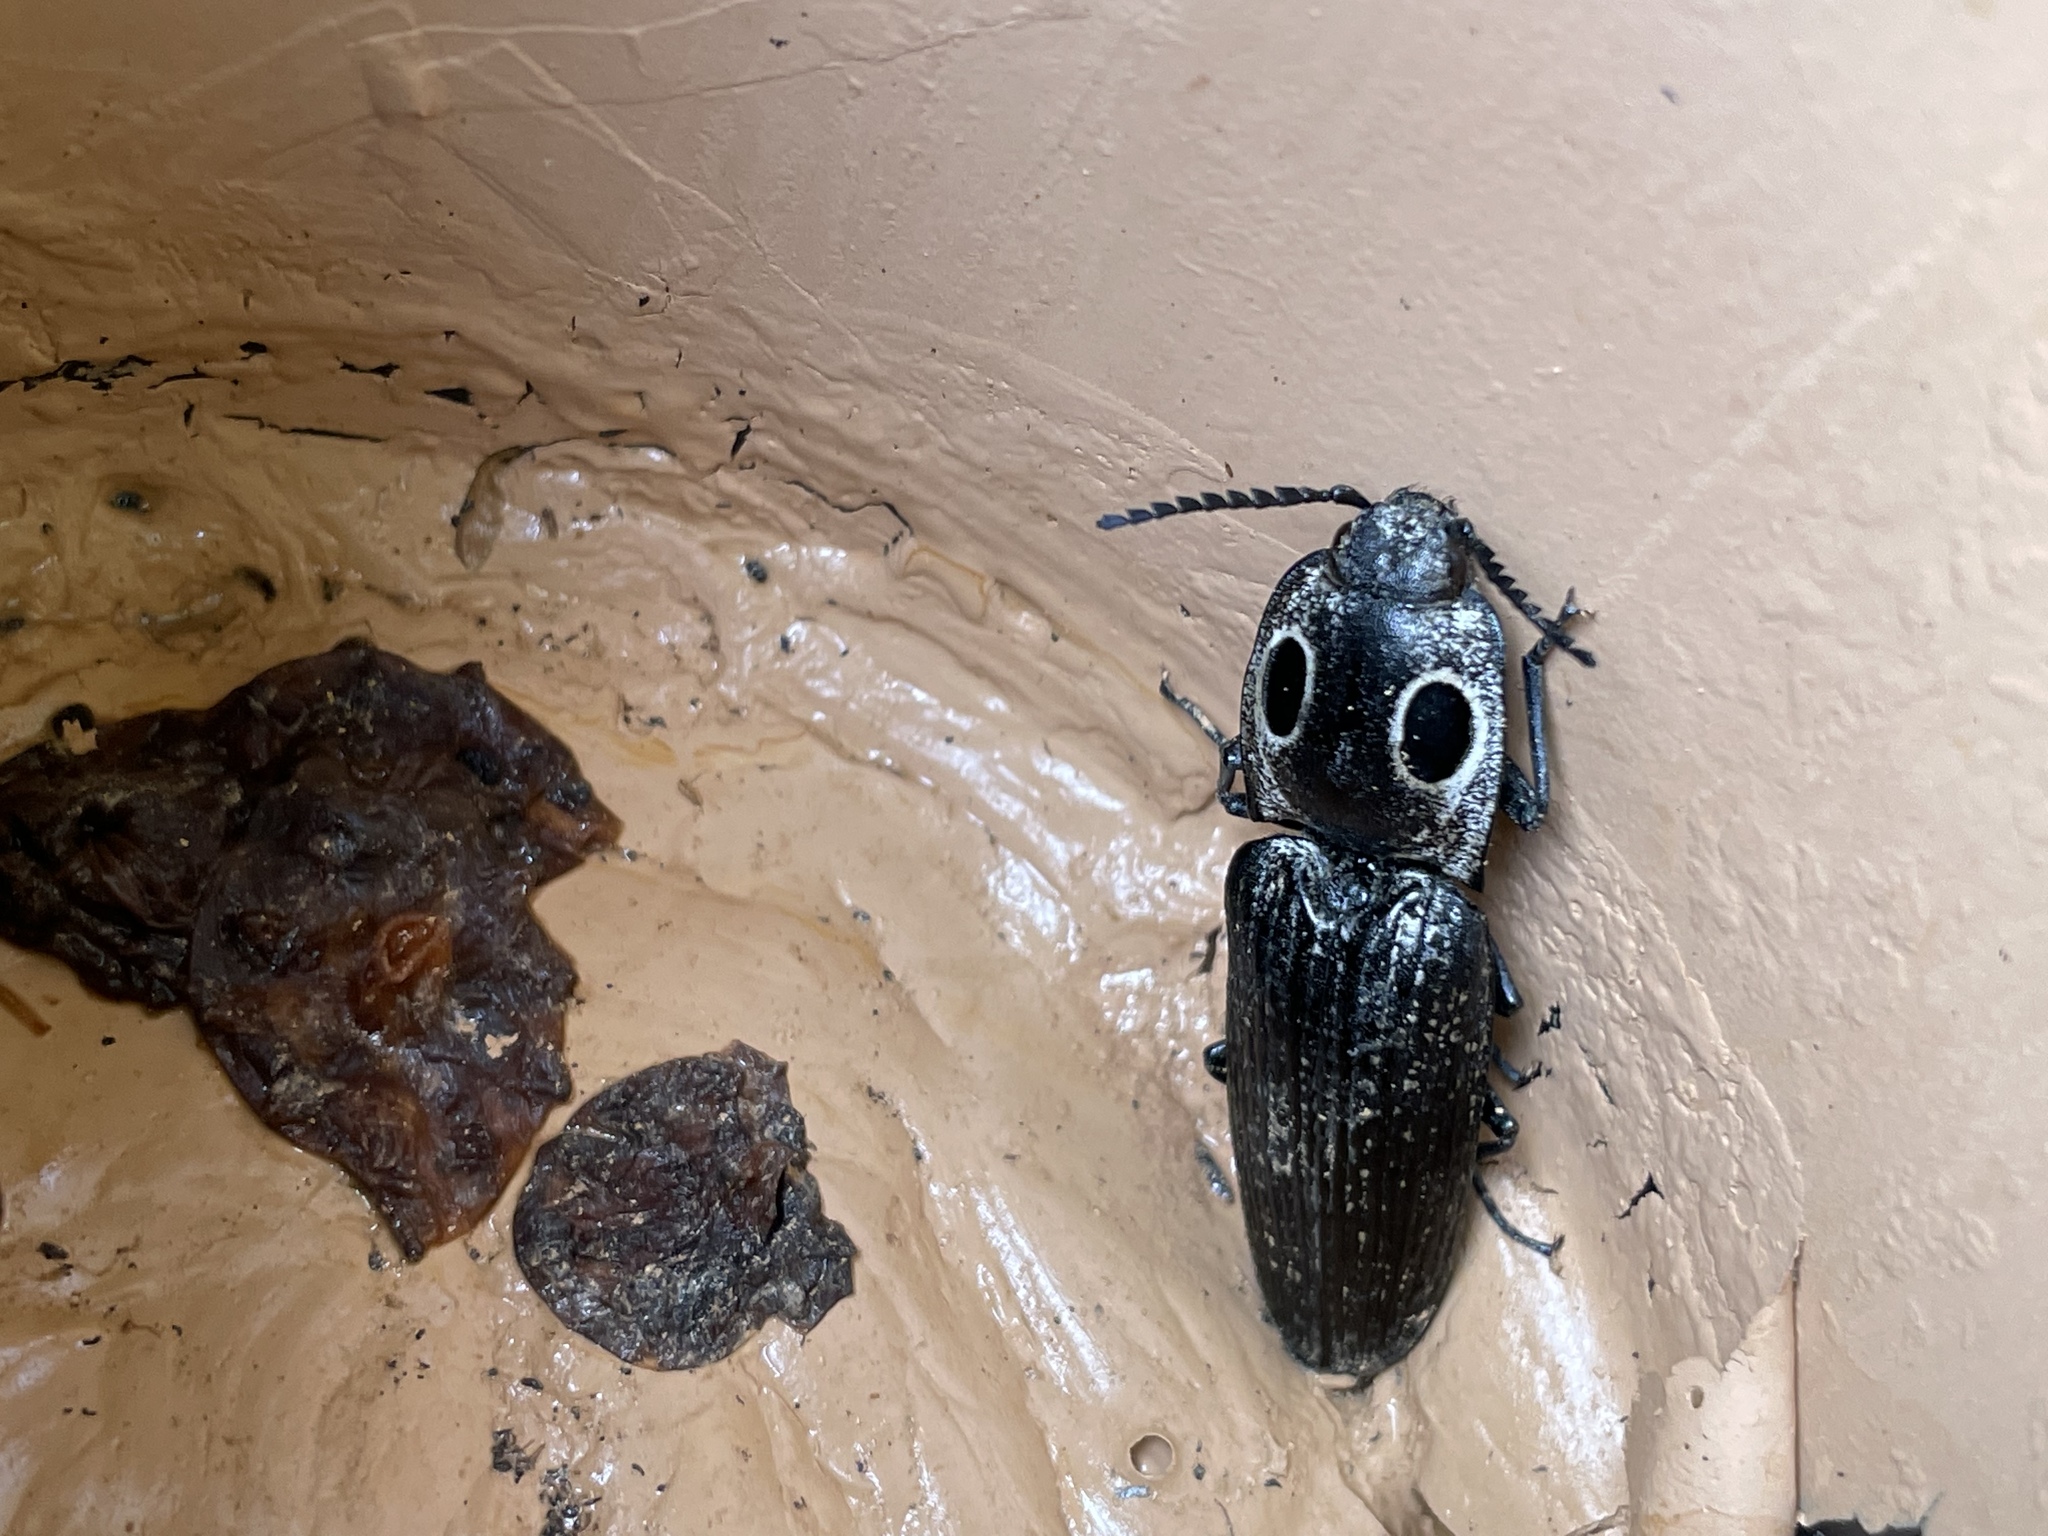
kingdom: Animalia
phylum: Arthropoda
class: Insecta
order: Coleoptera
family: Elateridae
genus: Alaus
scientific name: Alaus oculatus
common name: Eastern eyed click beetle
